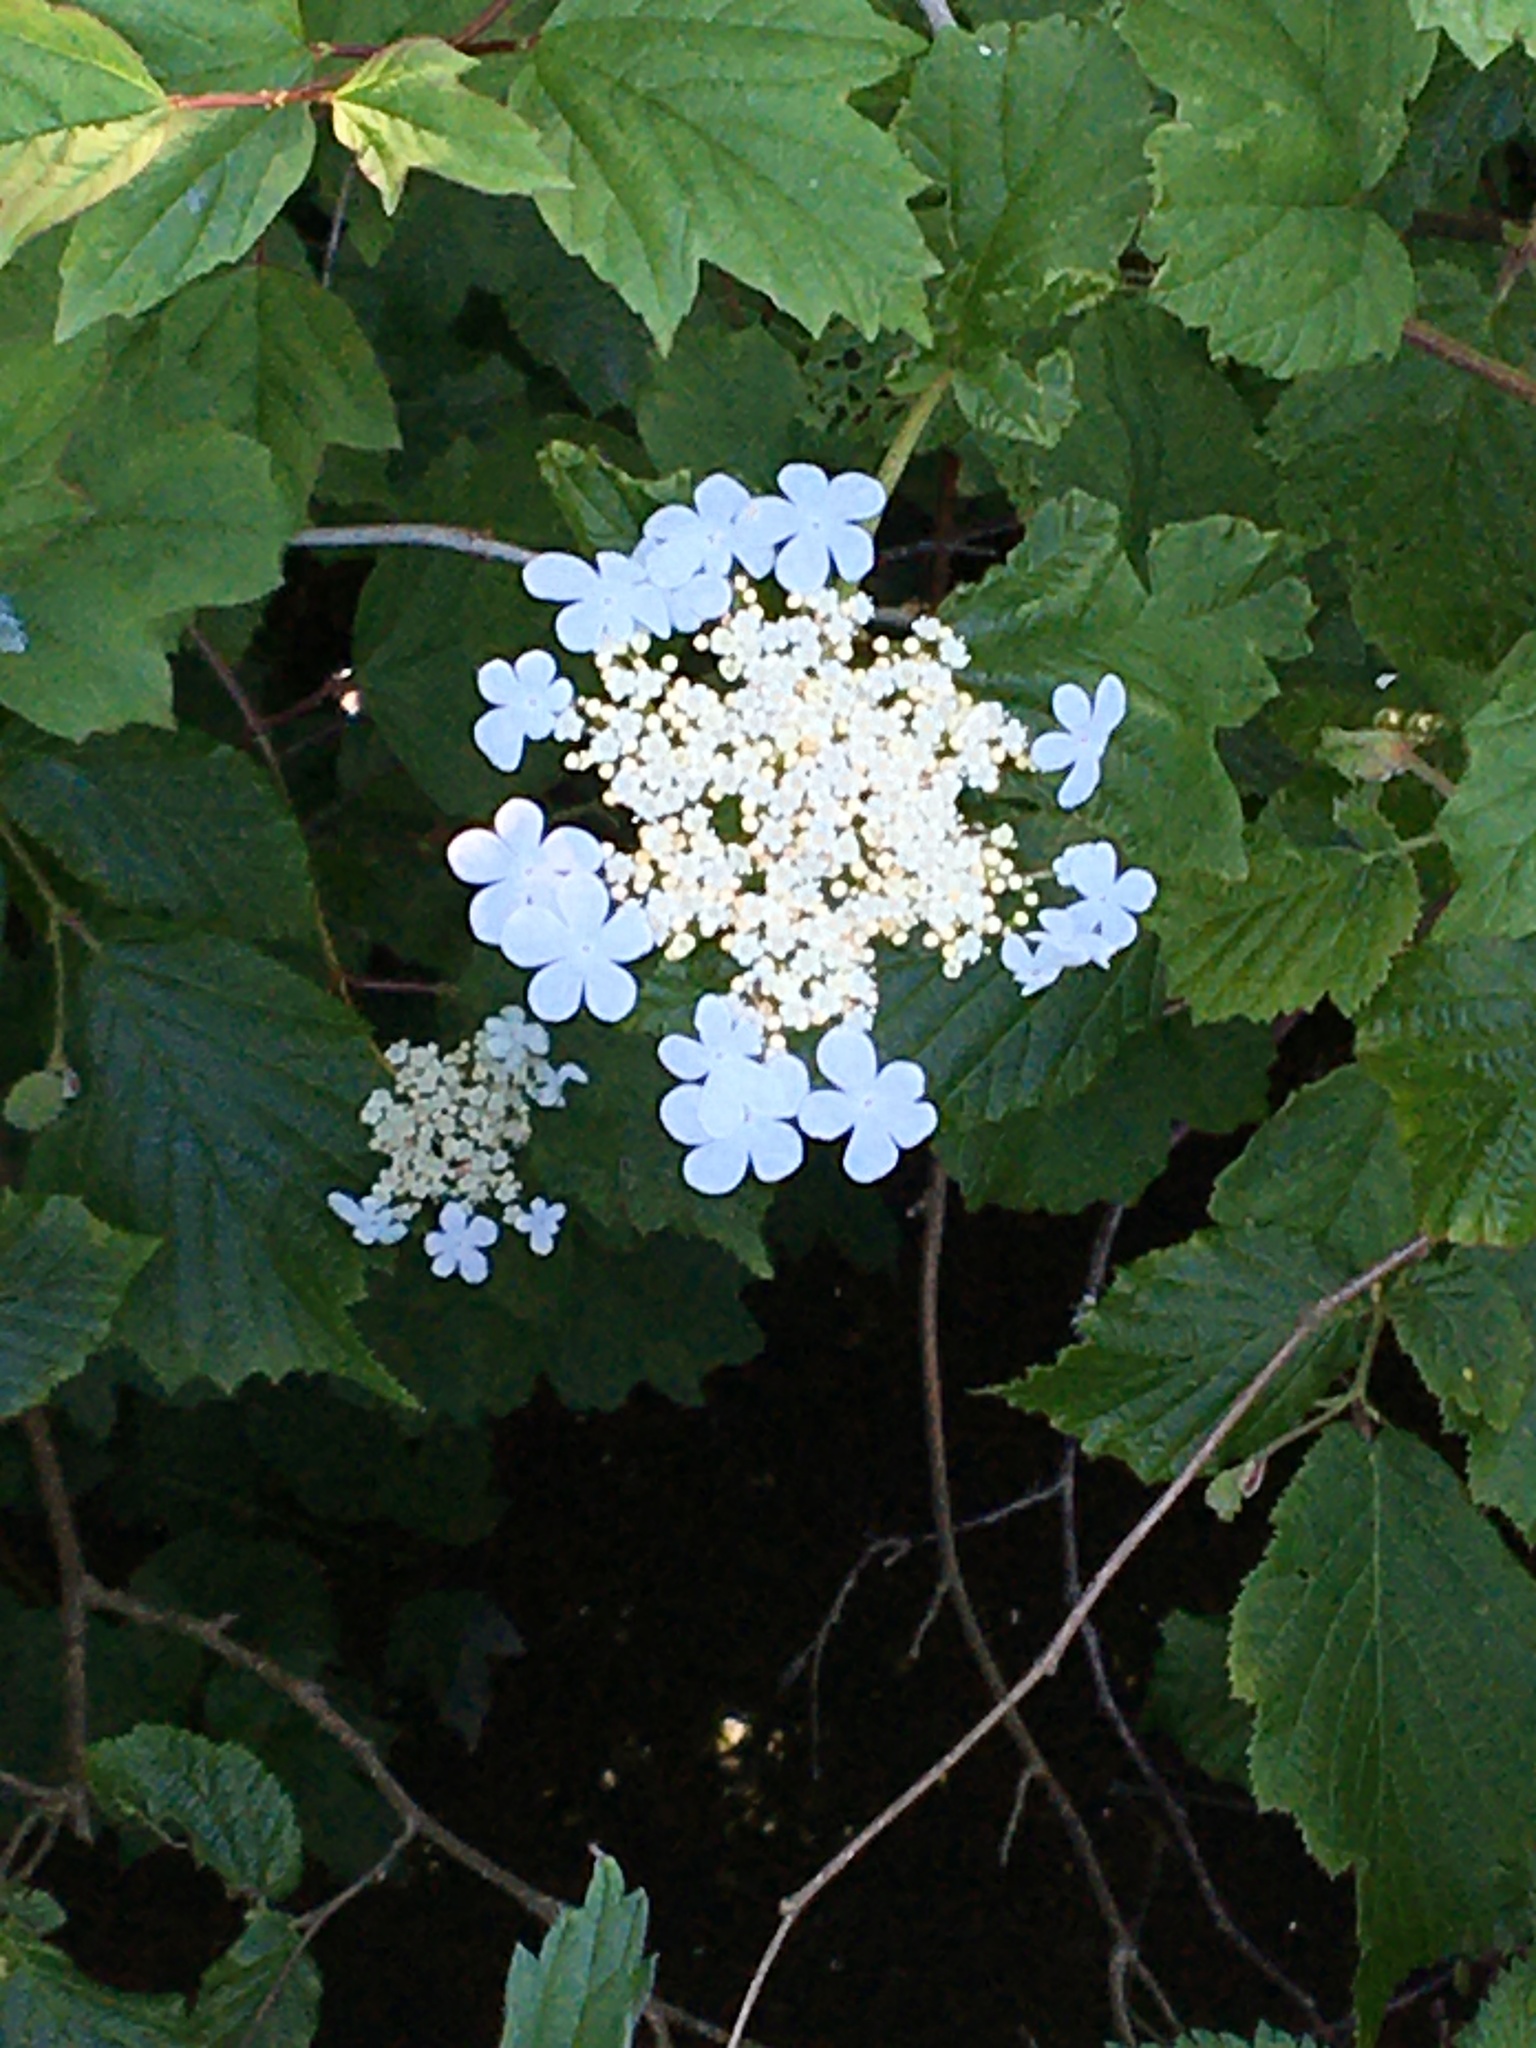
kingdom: Plantae
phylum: Tracheophyta
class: Magnoliopsida
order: Dipsacales
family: Viburnaceae
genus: Viburnum
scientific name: Viburnum opulus
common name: Guelder-rose
